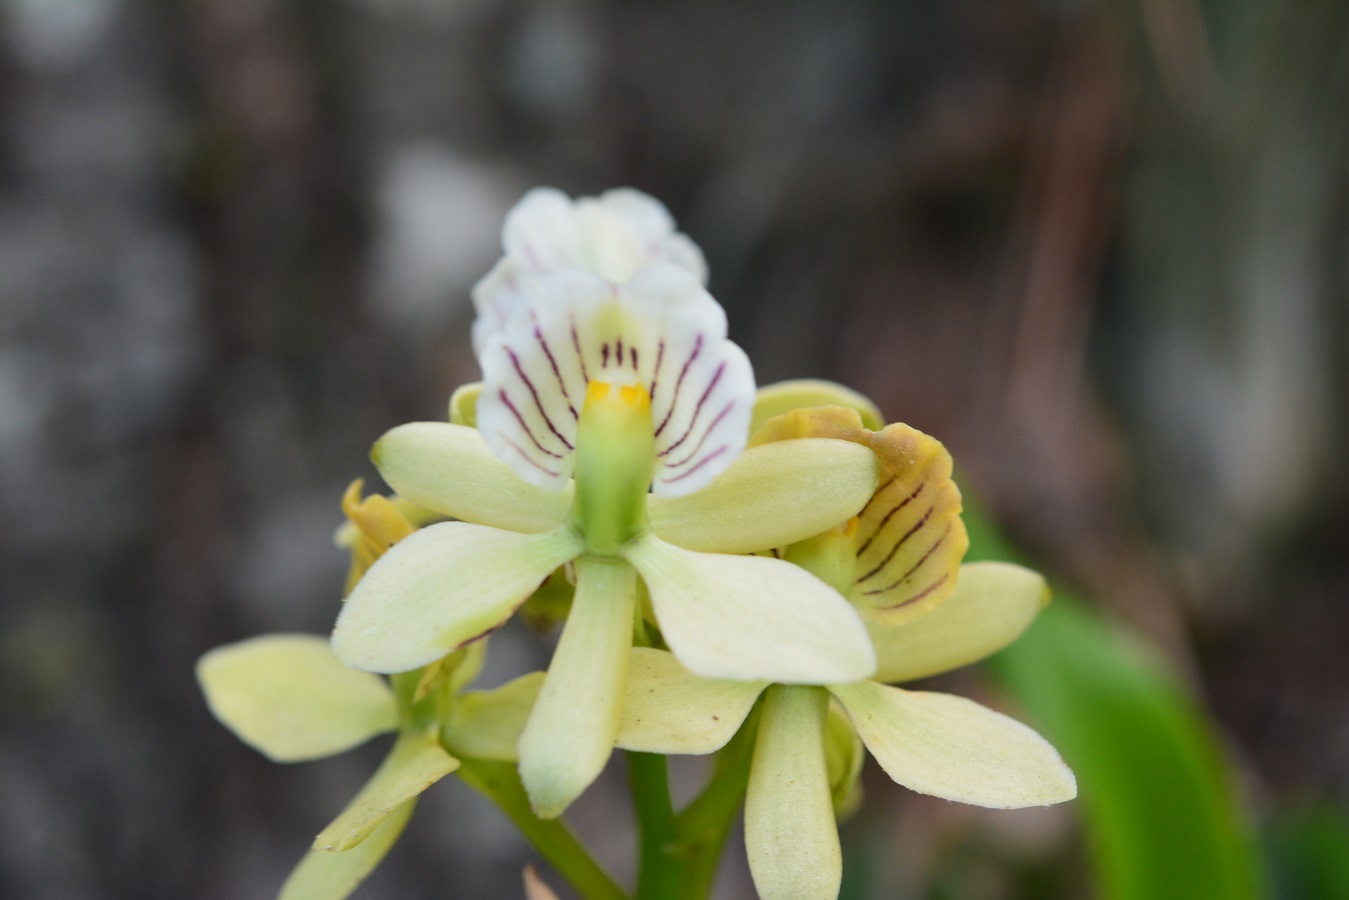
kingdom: Plantae
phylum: Tracheophyta
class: Liliopsida
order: Asparagales
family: Orchidaceae
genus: Prosthechea
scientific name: Prosthechea radiata
